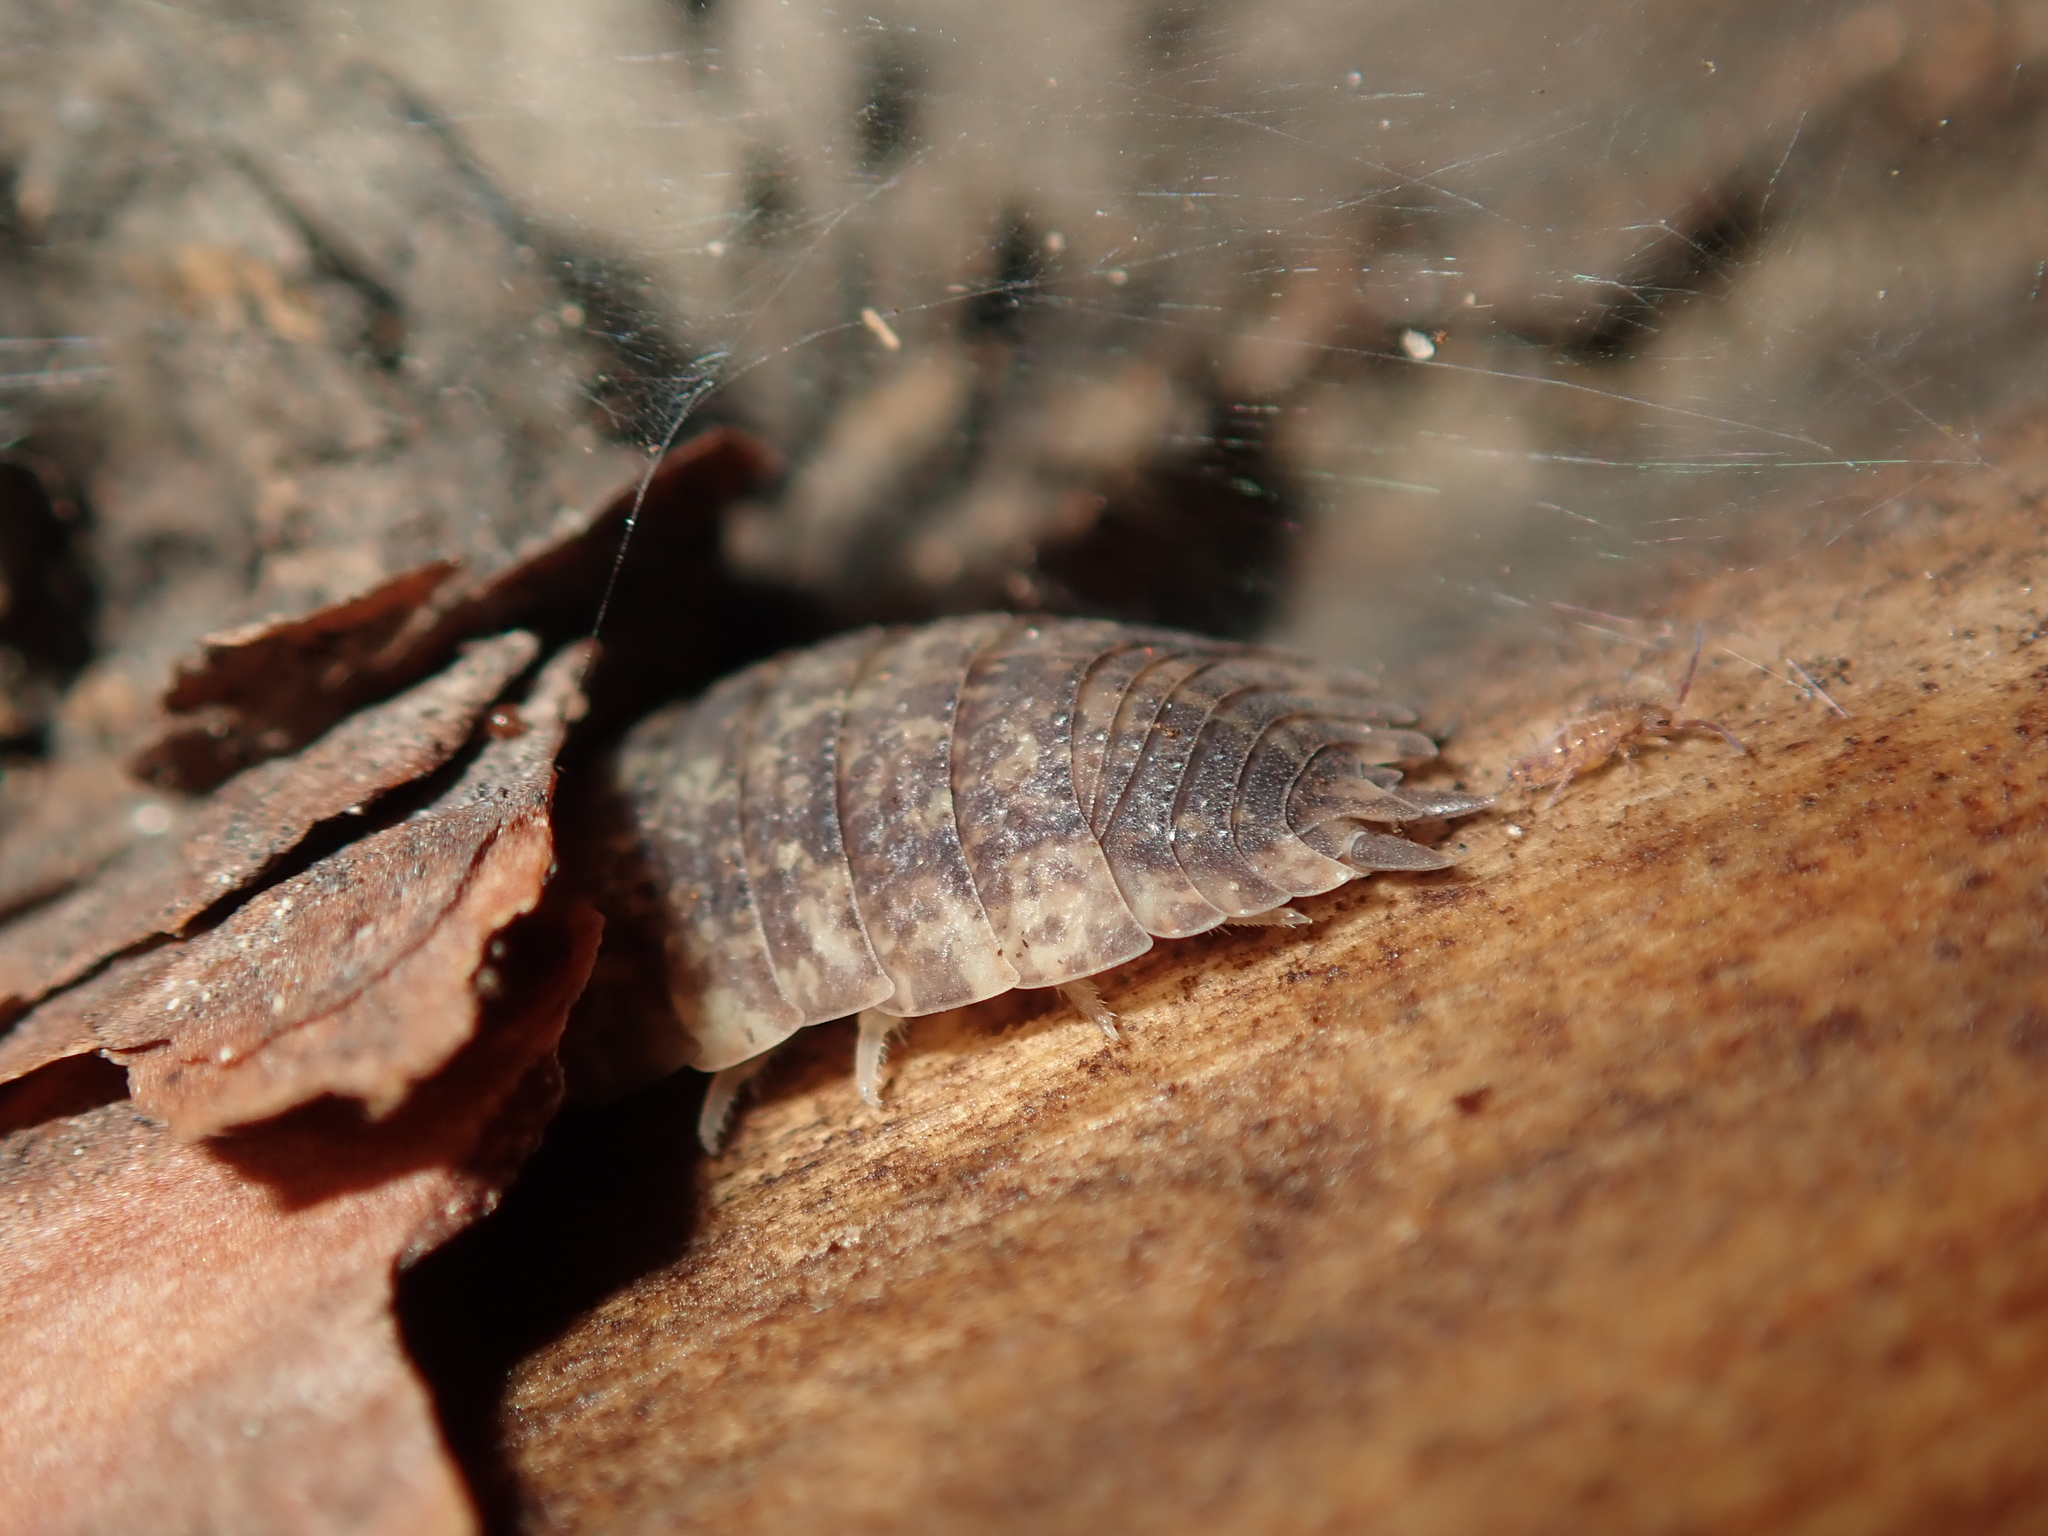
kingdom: Animalia
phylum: Arthropoda
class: Malacostraca
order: Isopoda
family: Porcellionidae
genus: Porcellio
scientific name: Porcellio scaber
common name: Common rough woodlouse
